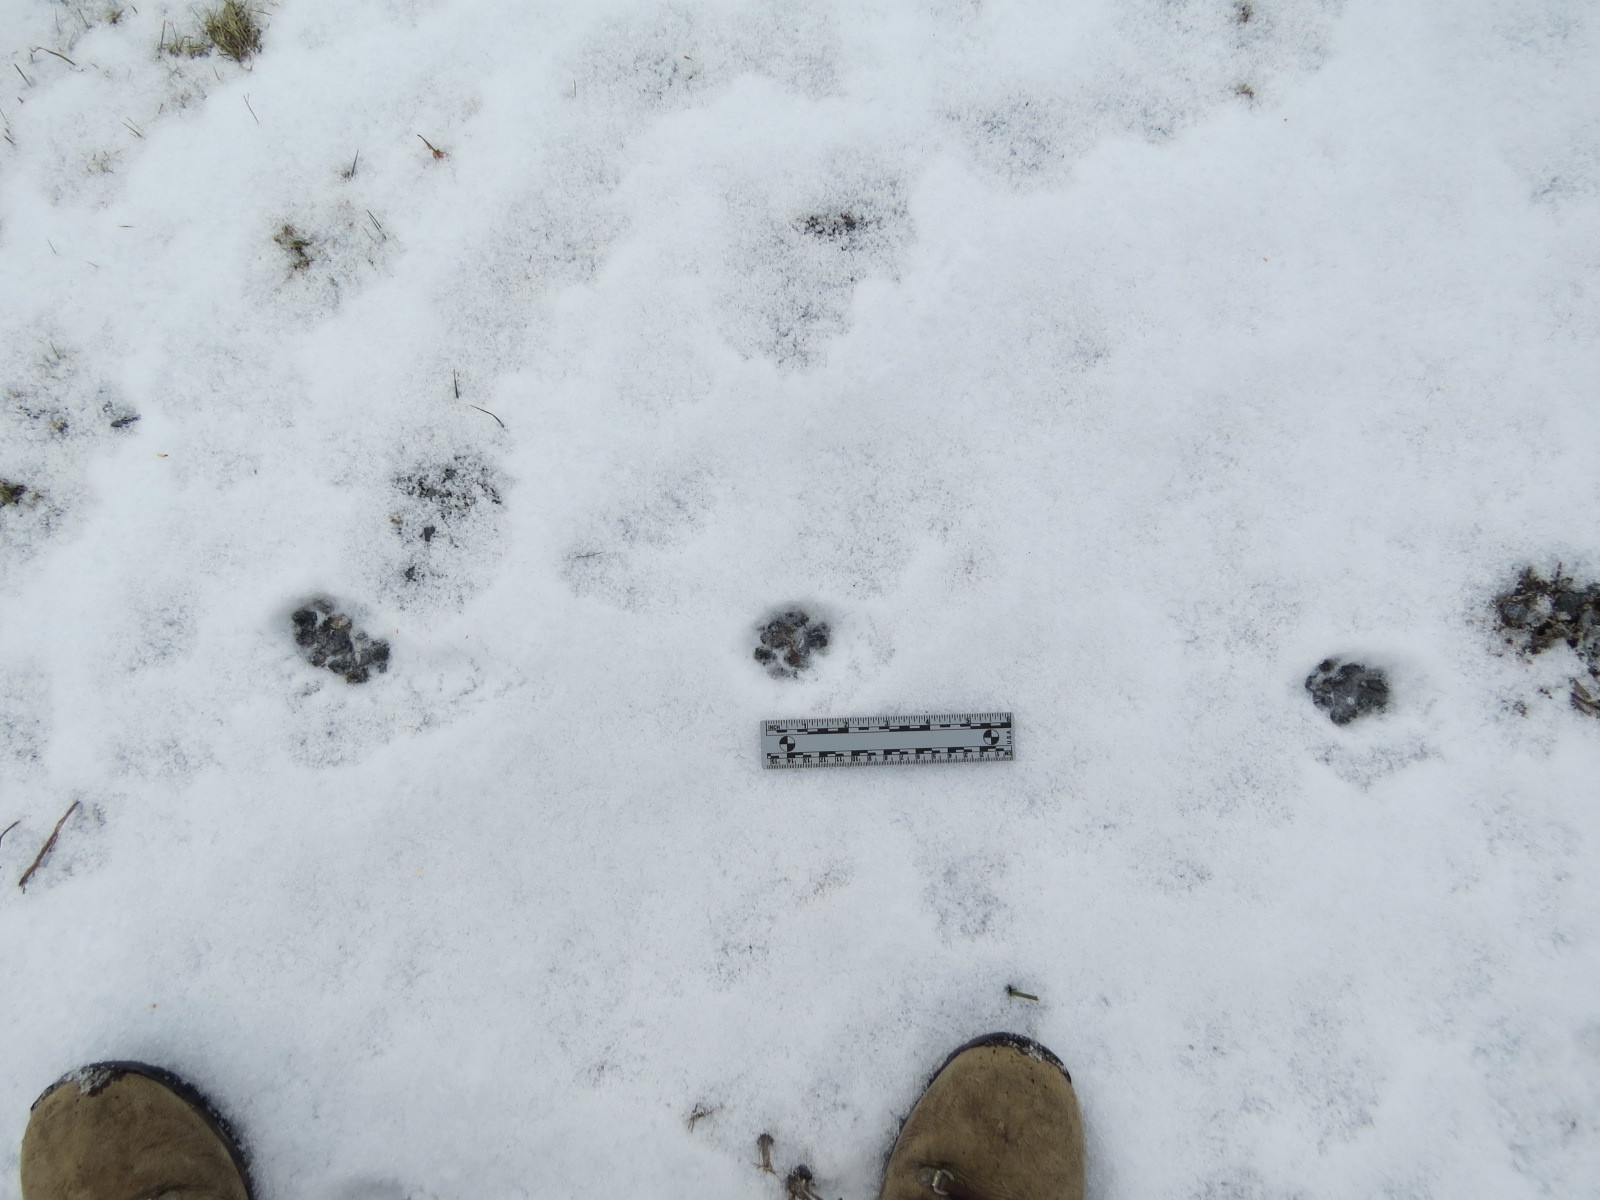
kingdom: Animalia
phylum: Chordata
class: Mammalia
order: Carnivora
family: Canidae
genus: Vulpes
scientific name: Vulpes vulpes
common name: Red fox
